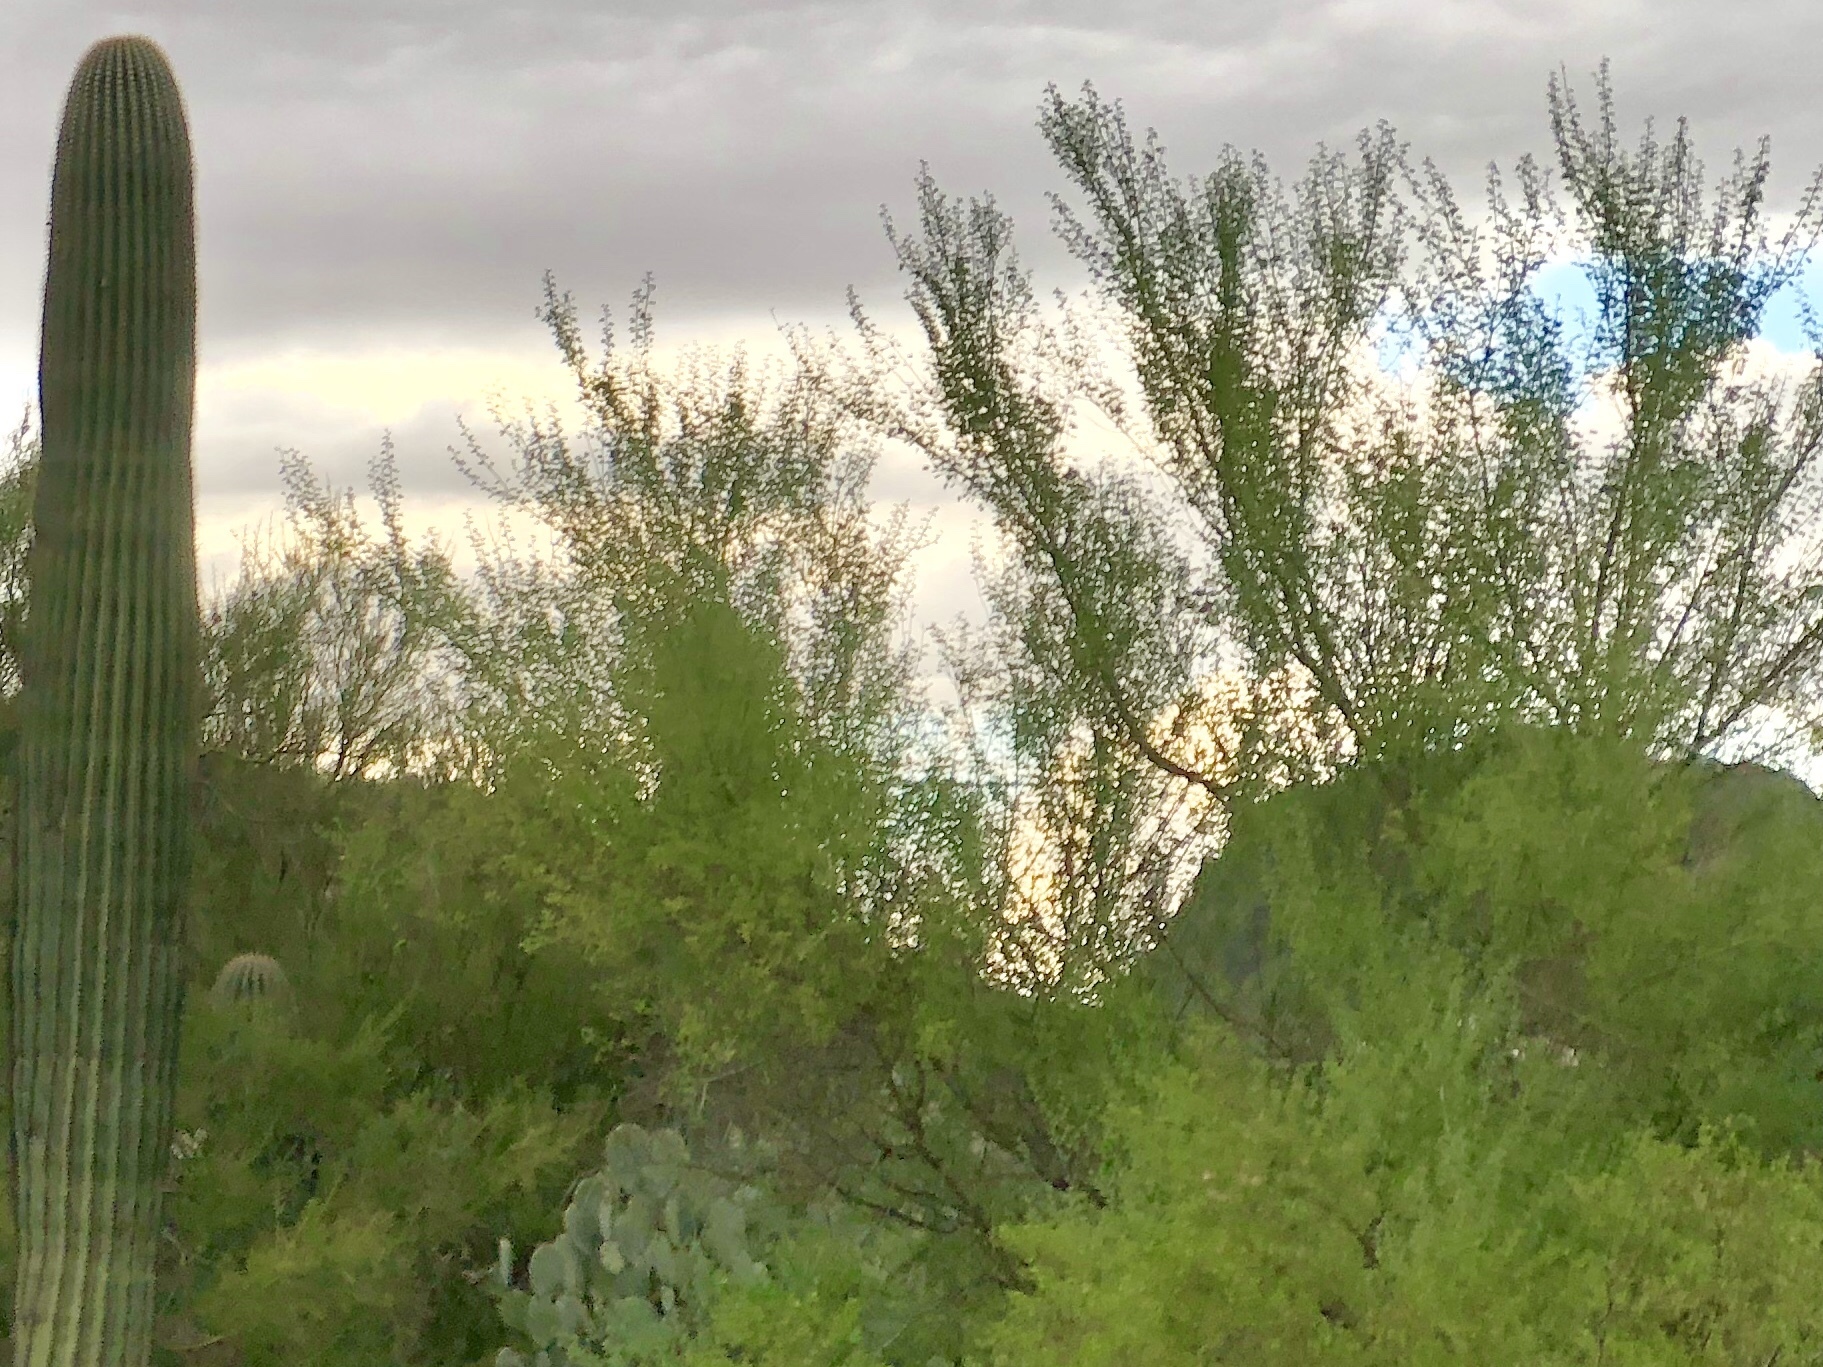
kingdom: Plantae
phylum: Tracheophyta
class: Magnoliopsida
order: Fabales
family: Fabaceae
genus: Parkinsonia
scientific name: Parkinsonia microphylla
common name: Yellow paloverde
